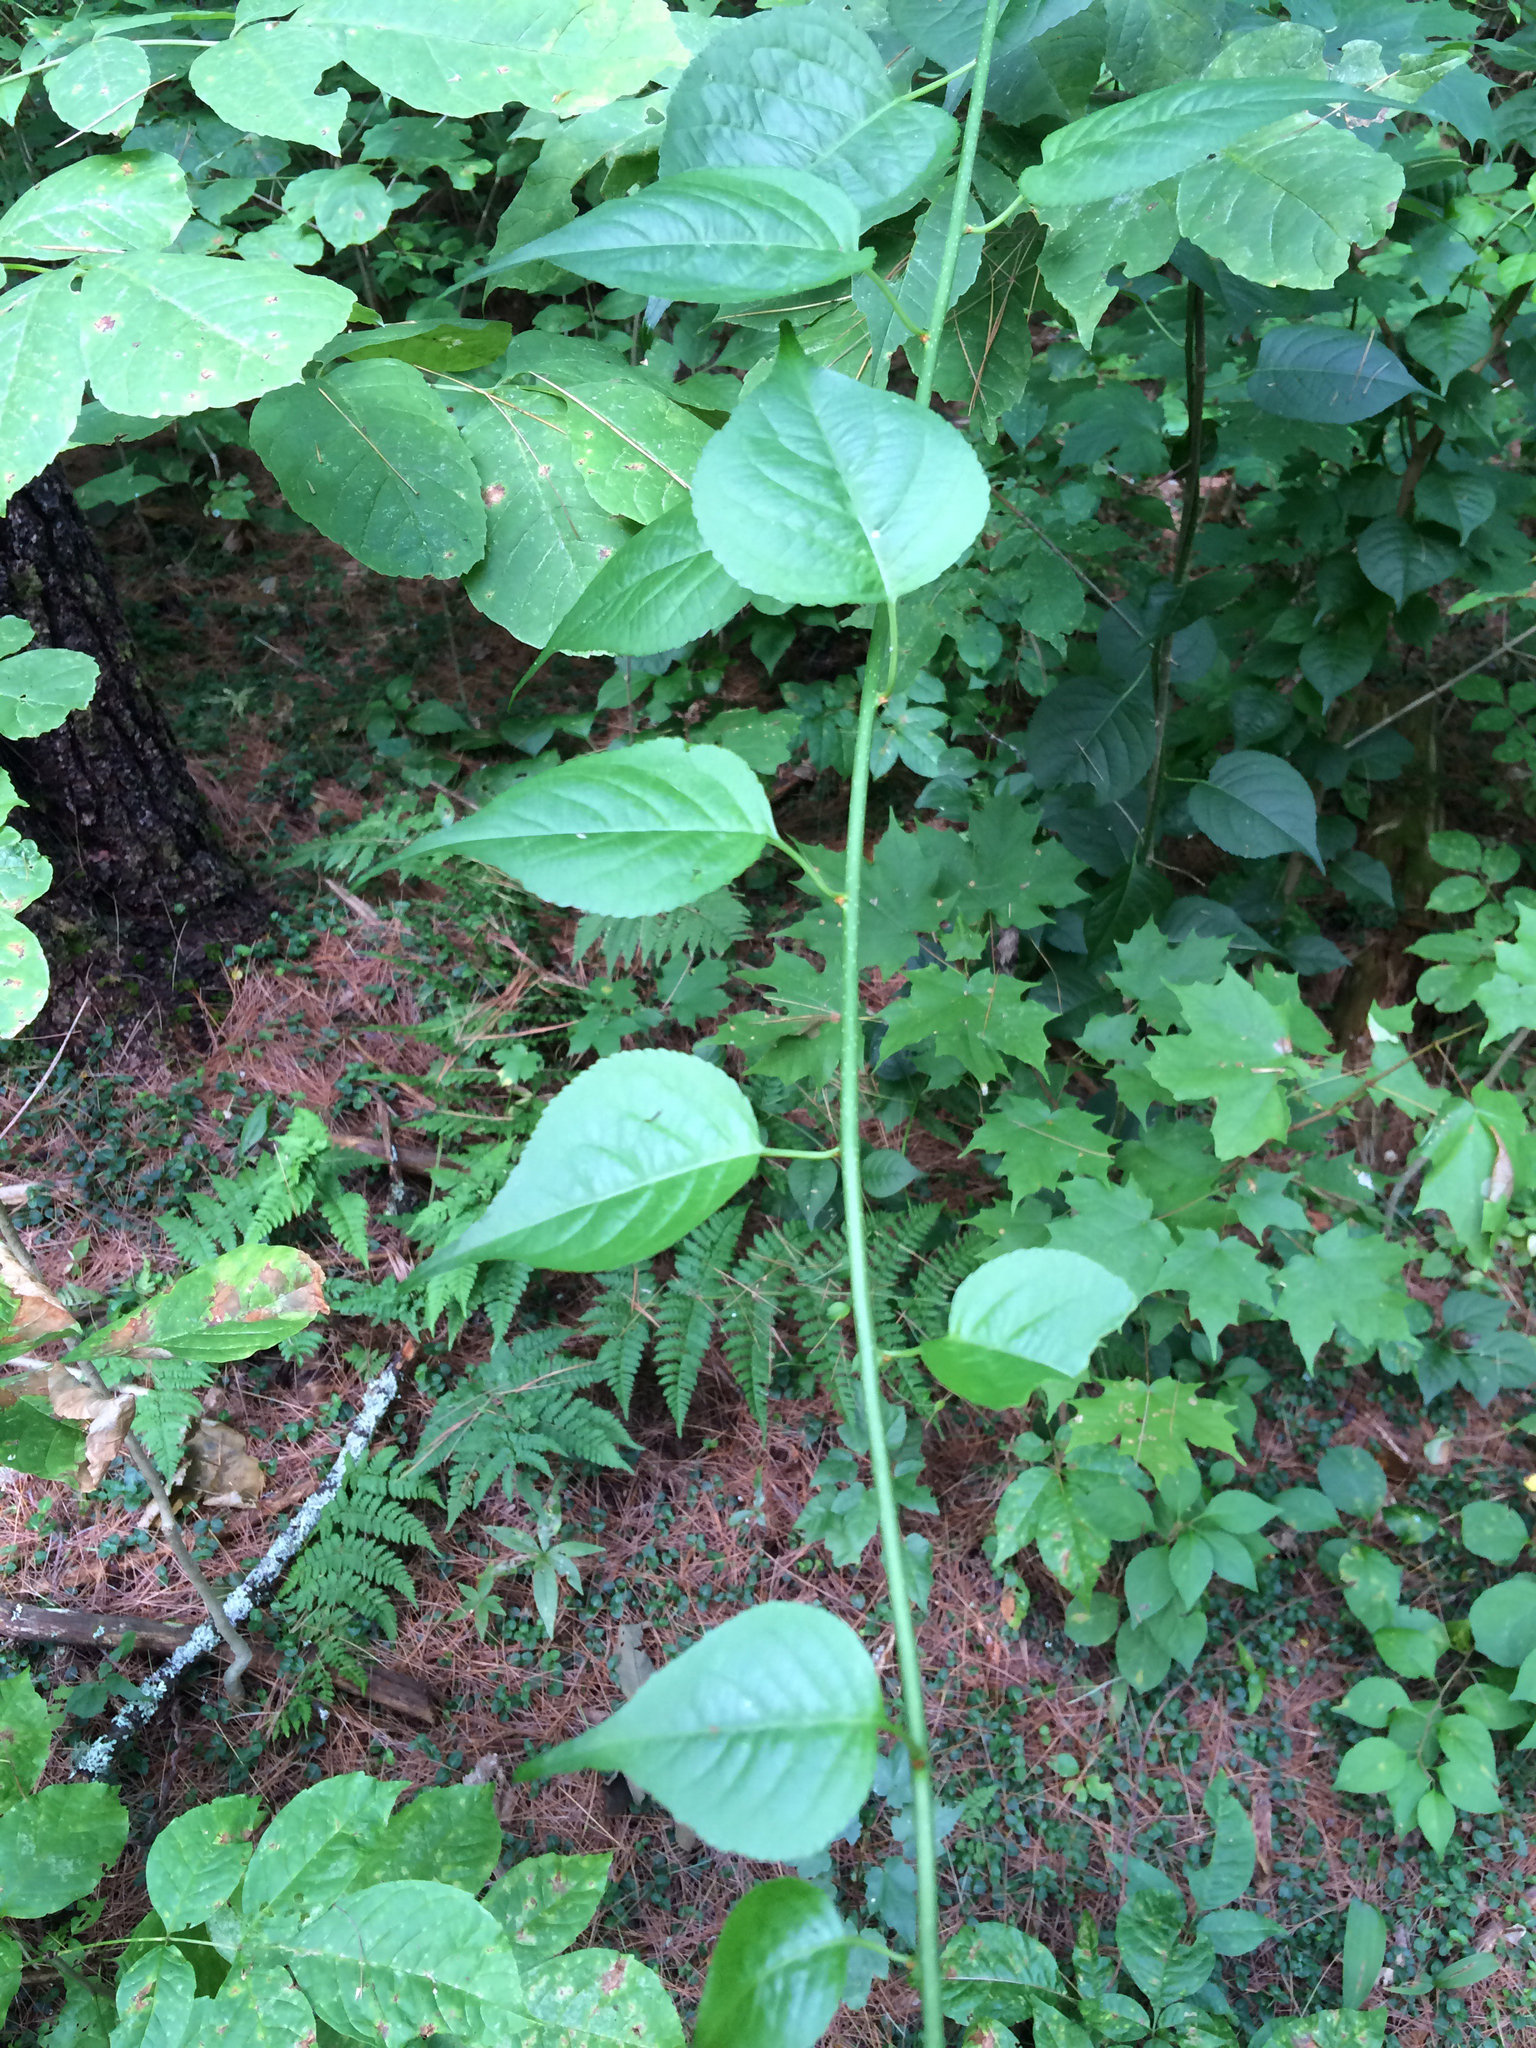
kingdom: Plantae
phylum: Tracheophyta
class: Magnoliopsida
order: Celastrales
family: Celastraceae
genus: Celastrus
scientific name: Celastrus orbiculatus
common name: Oriental bittersweet
